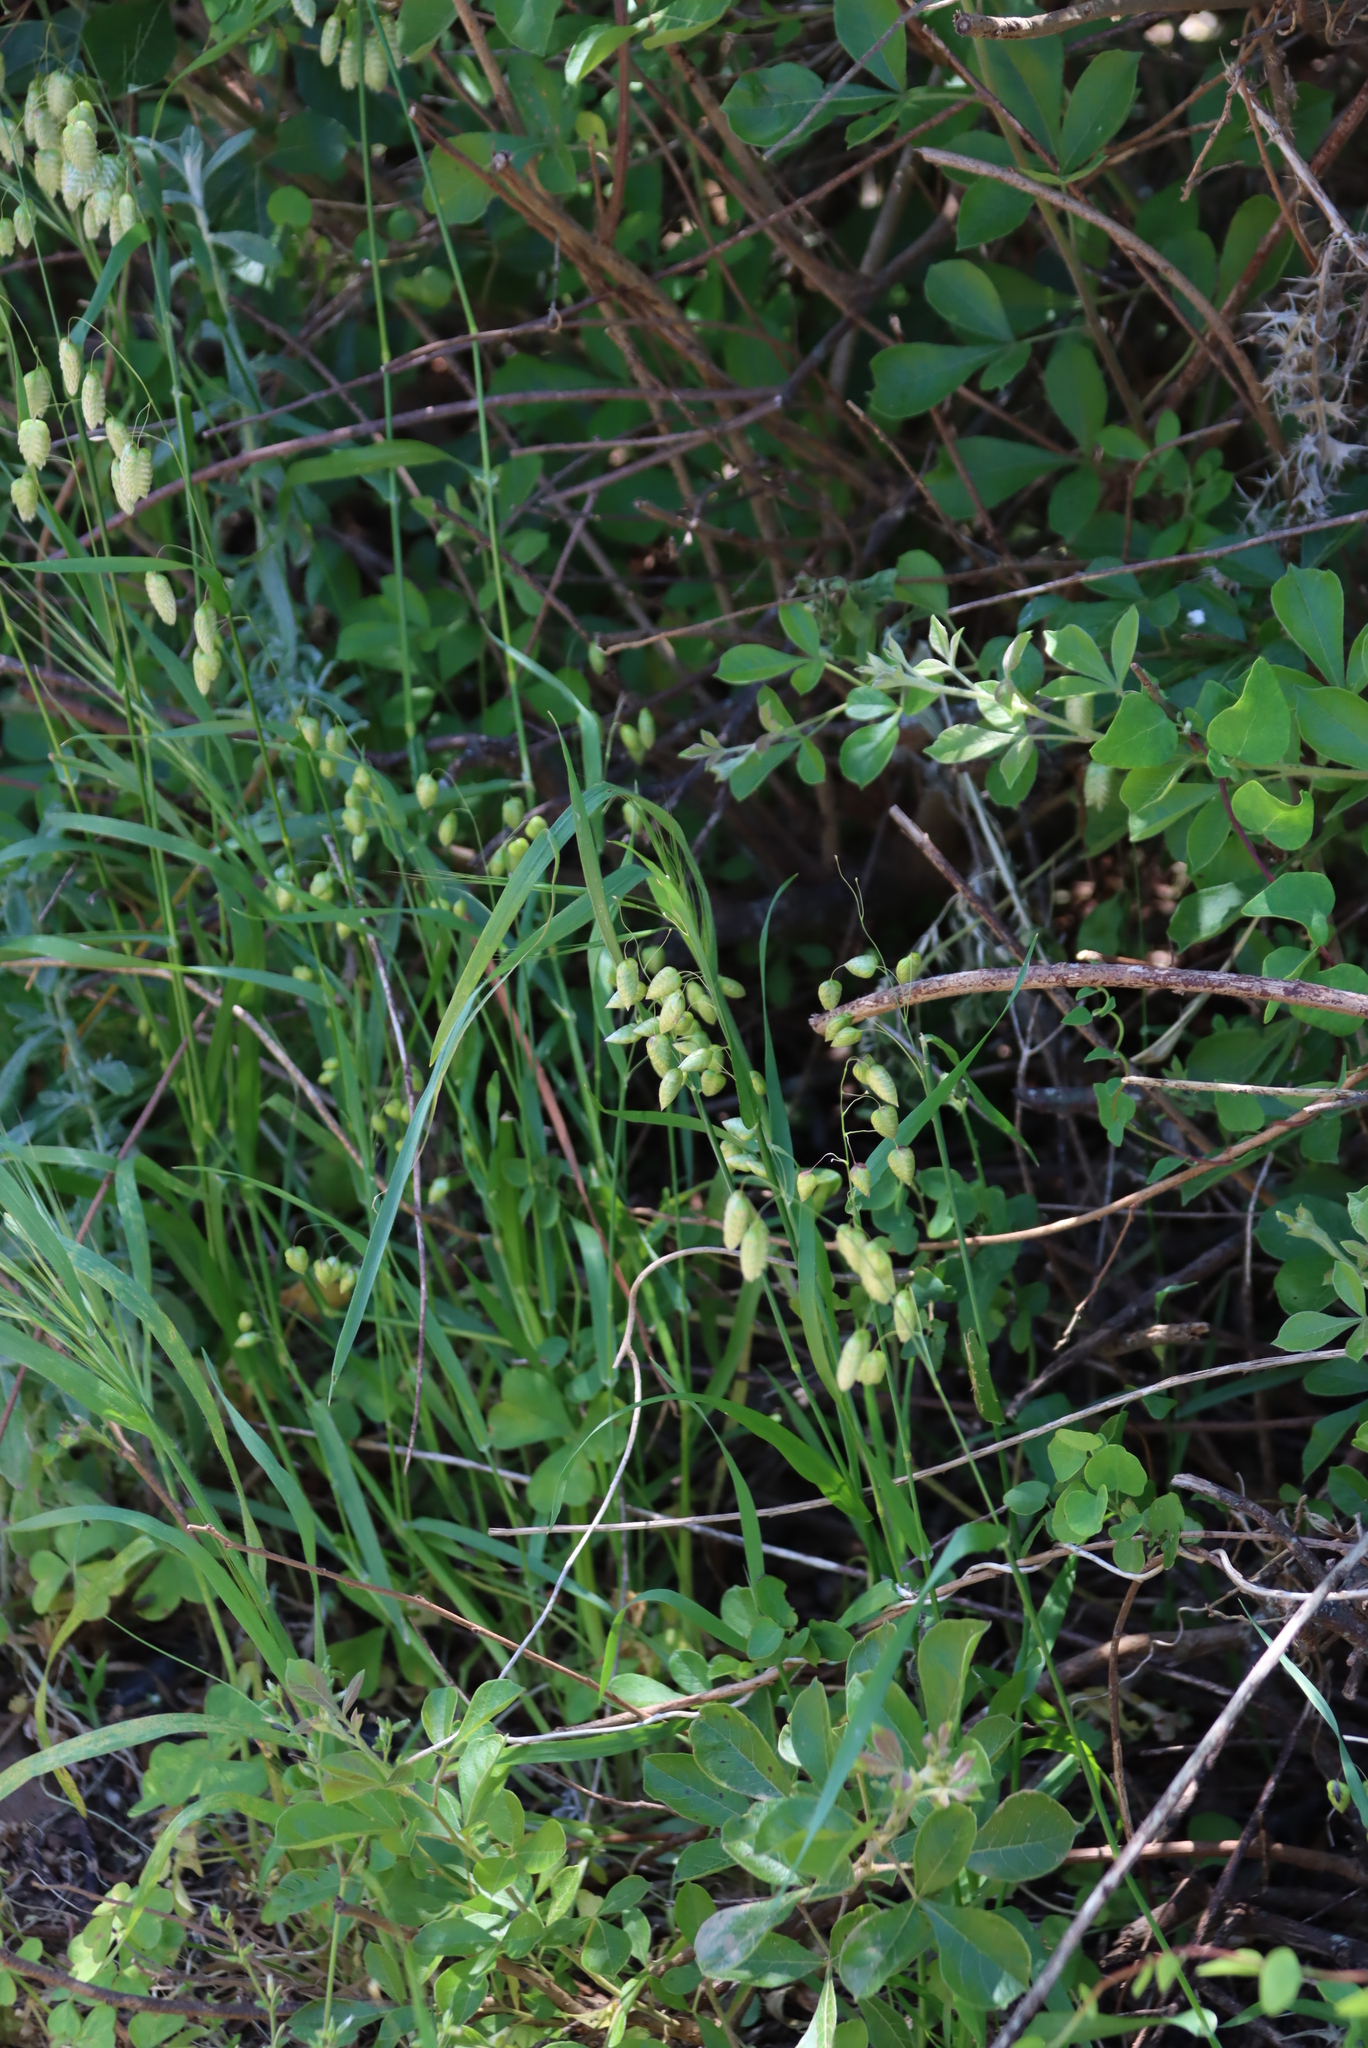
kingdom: Plantae
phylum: Tracheophyta
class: Liliopsida
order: Poales
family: Poaceae
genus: Briza
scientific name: Briza maxima
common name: Big quakinggrass
